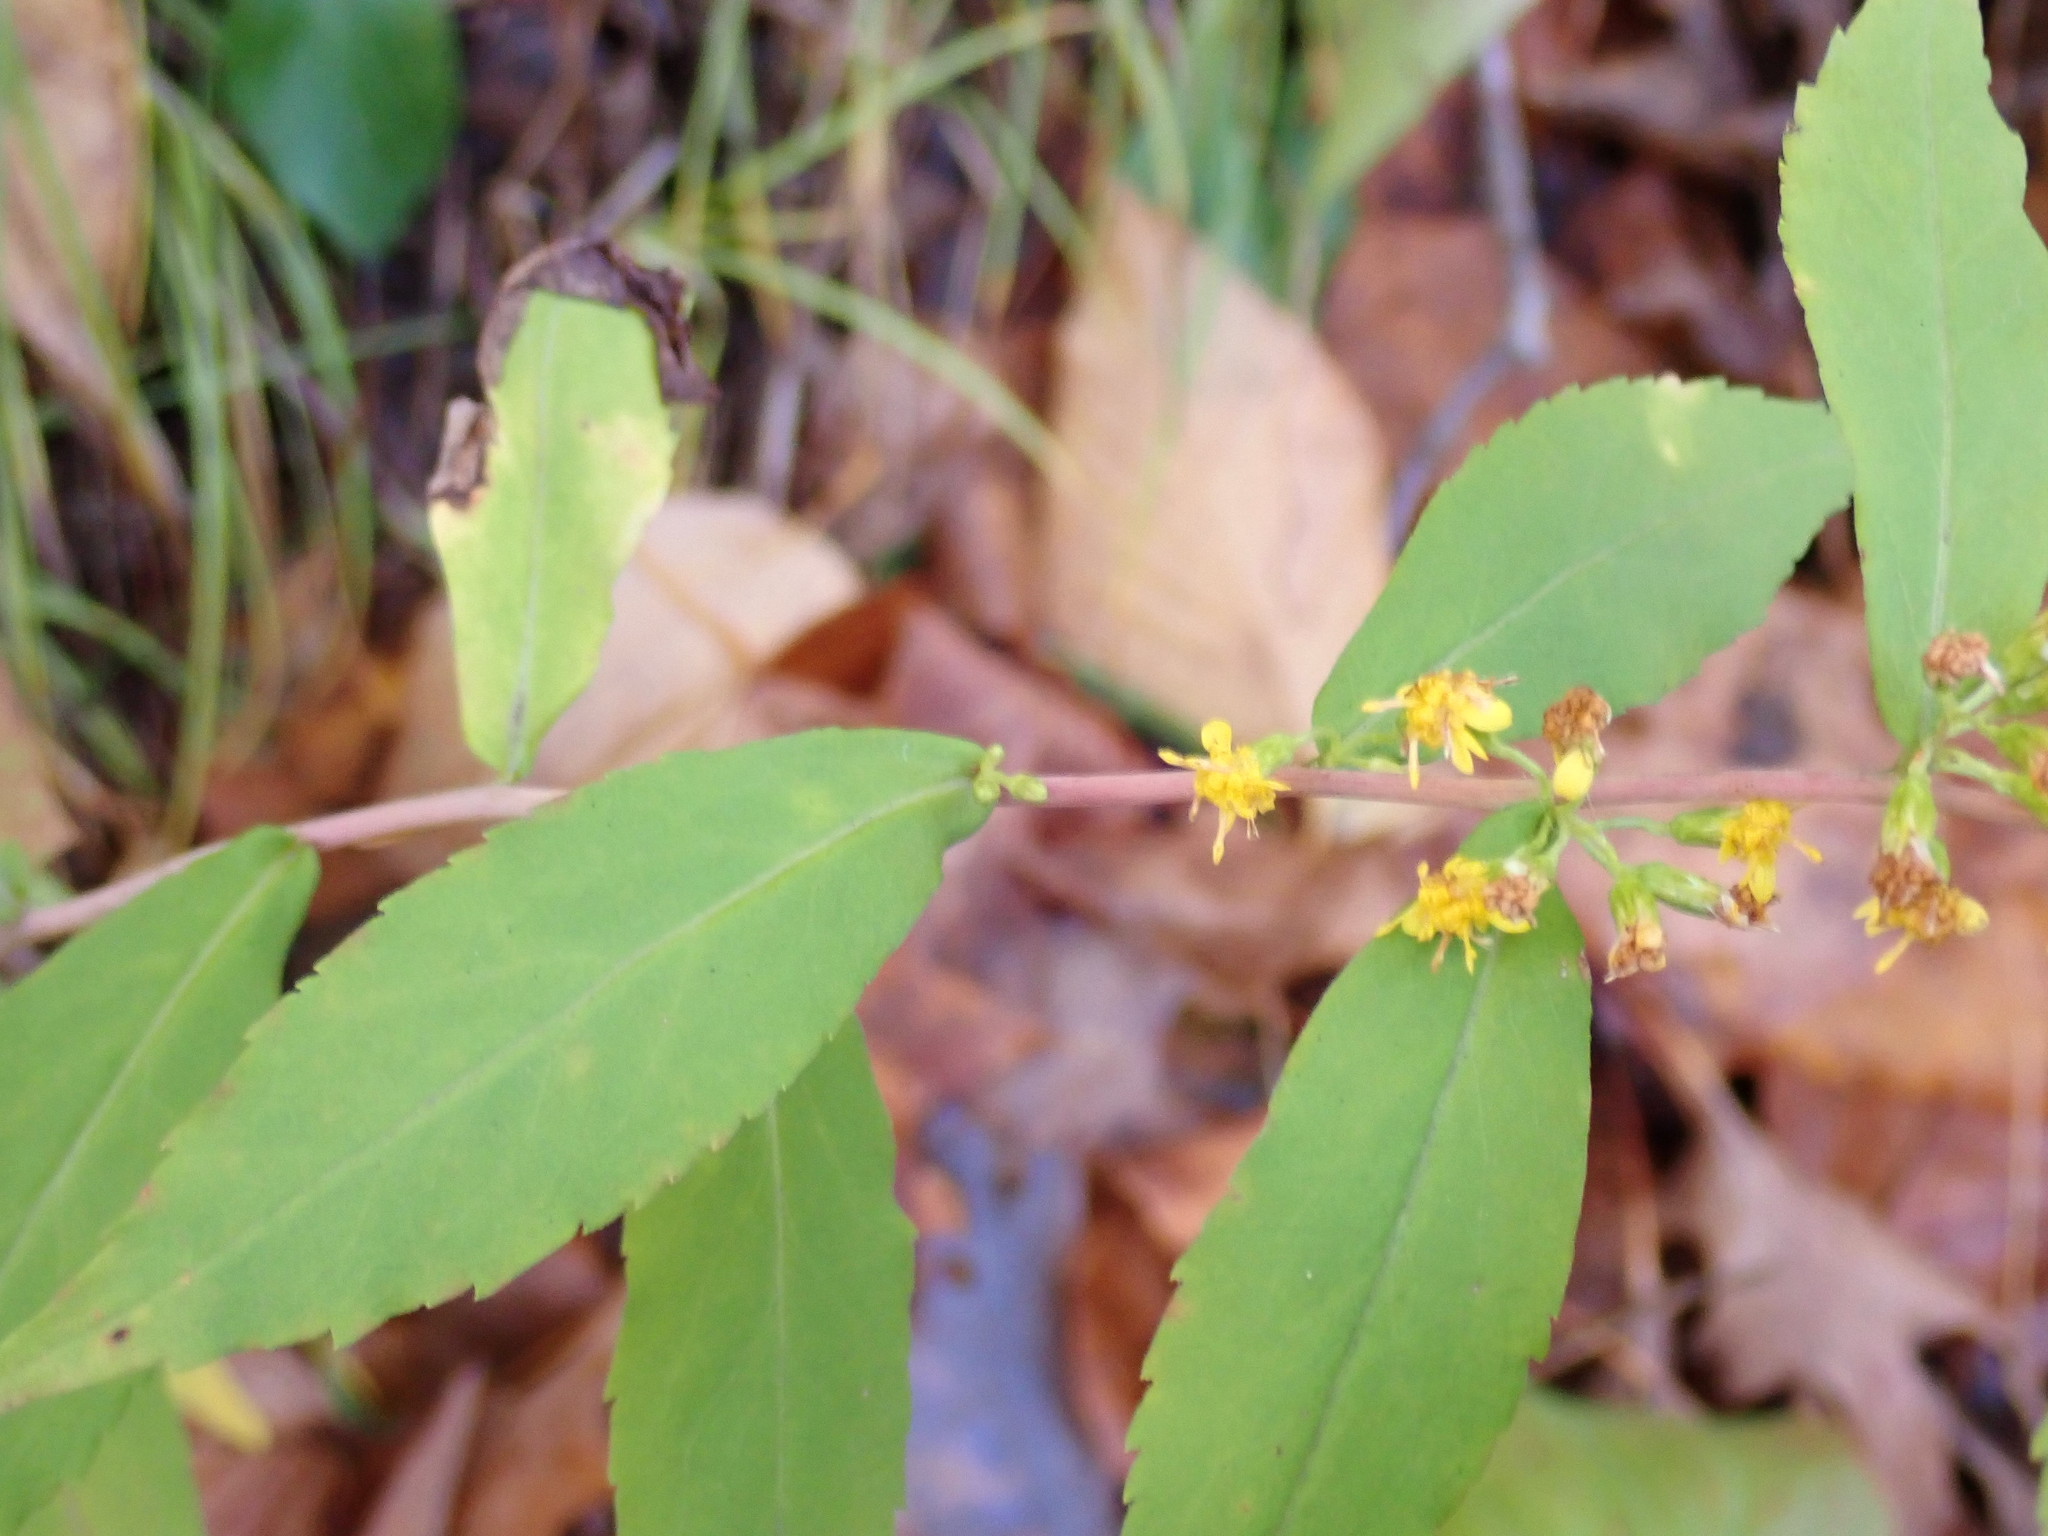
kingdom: Plantae
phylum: Tracheophyta
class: Magnoliopsida
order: Asterales
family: Asteraceae
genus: Solidago
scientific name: Solidago caesia
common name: Woodland goldenrod
